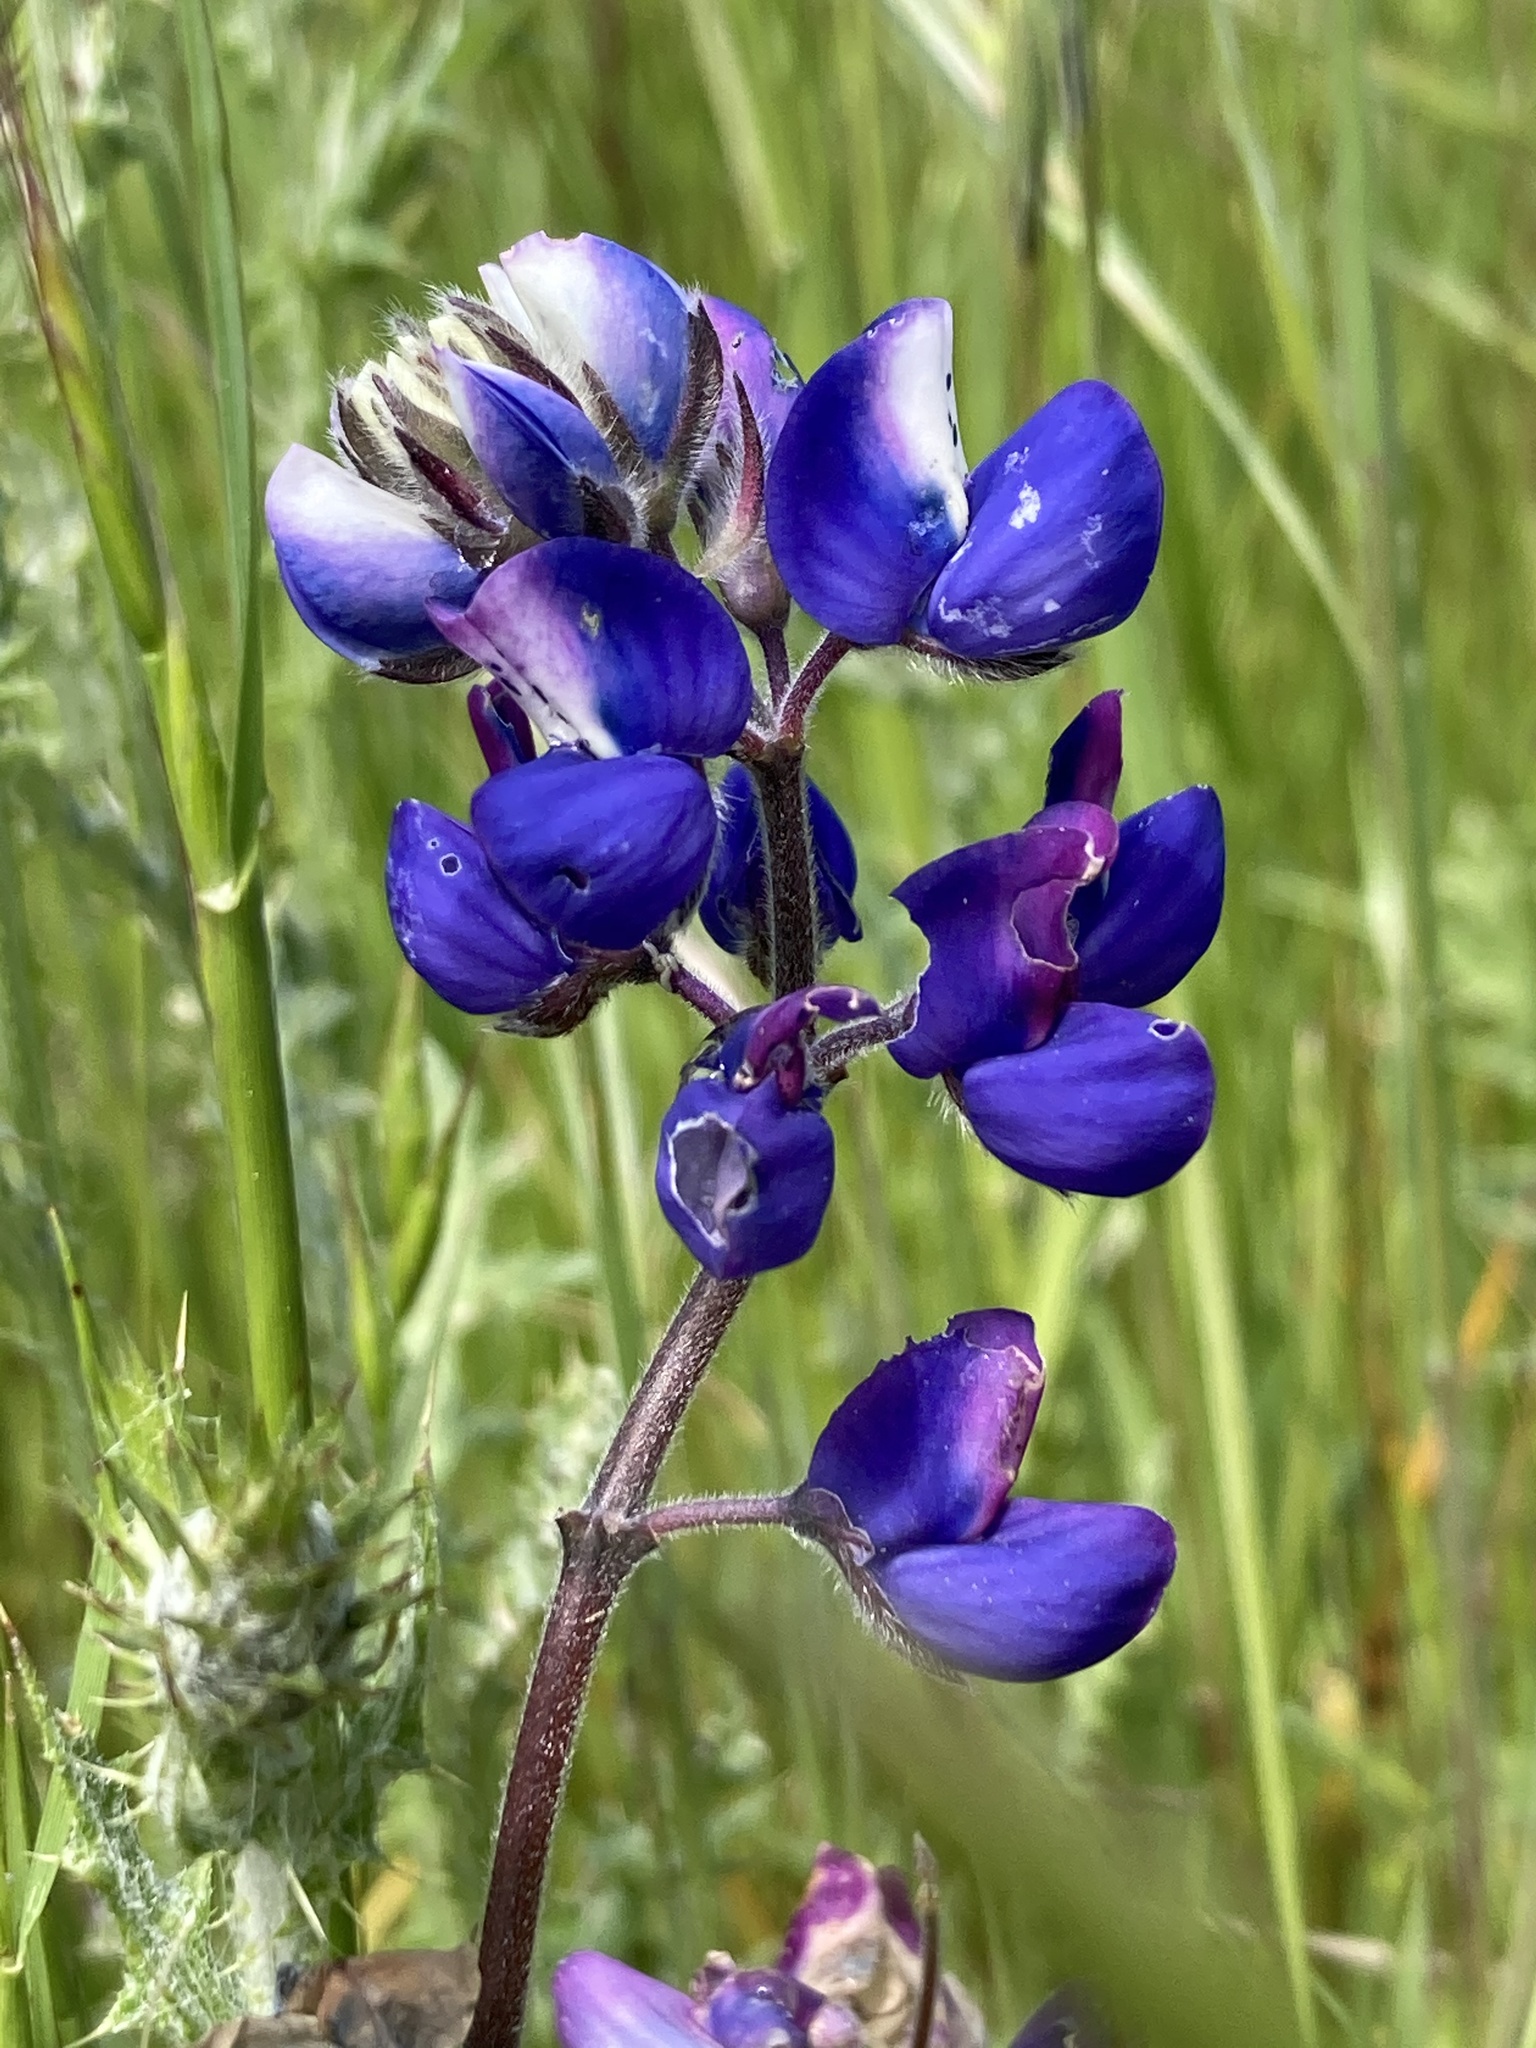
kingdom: Plantae
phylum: Tracheophyta
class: Magnoliopsida
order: Fabales
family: Fabaceae
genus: Lupinus
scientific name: Lupinus nanus
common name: Orean blue lupin
